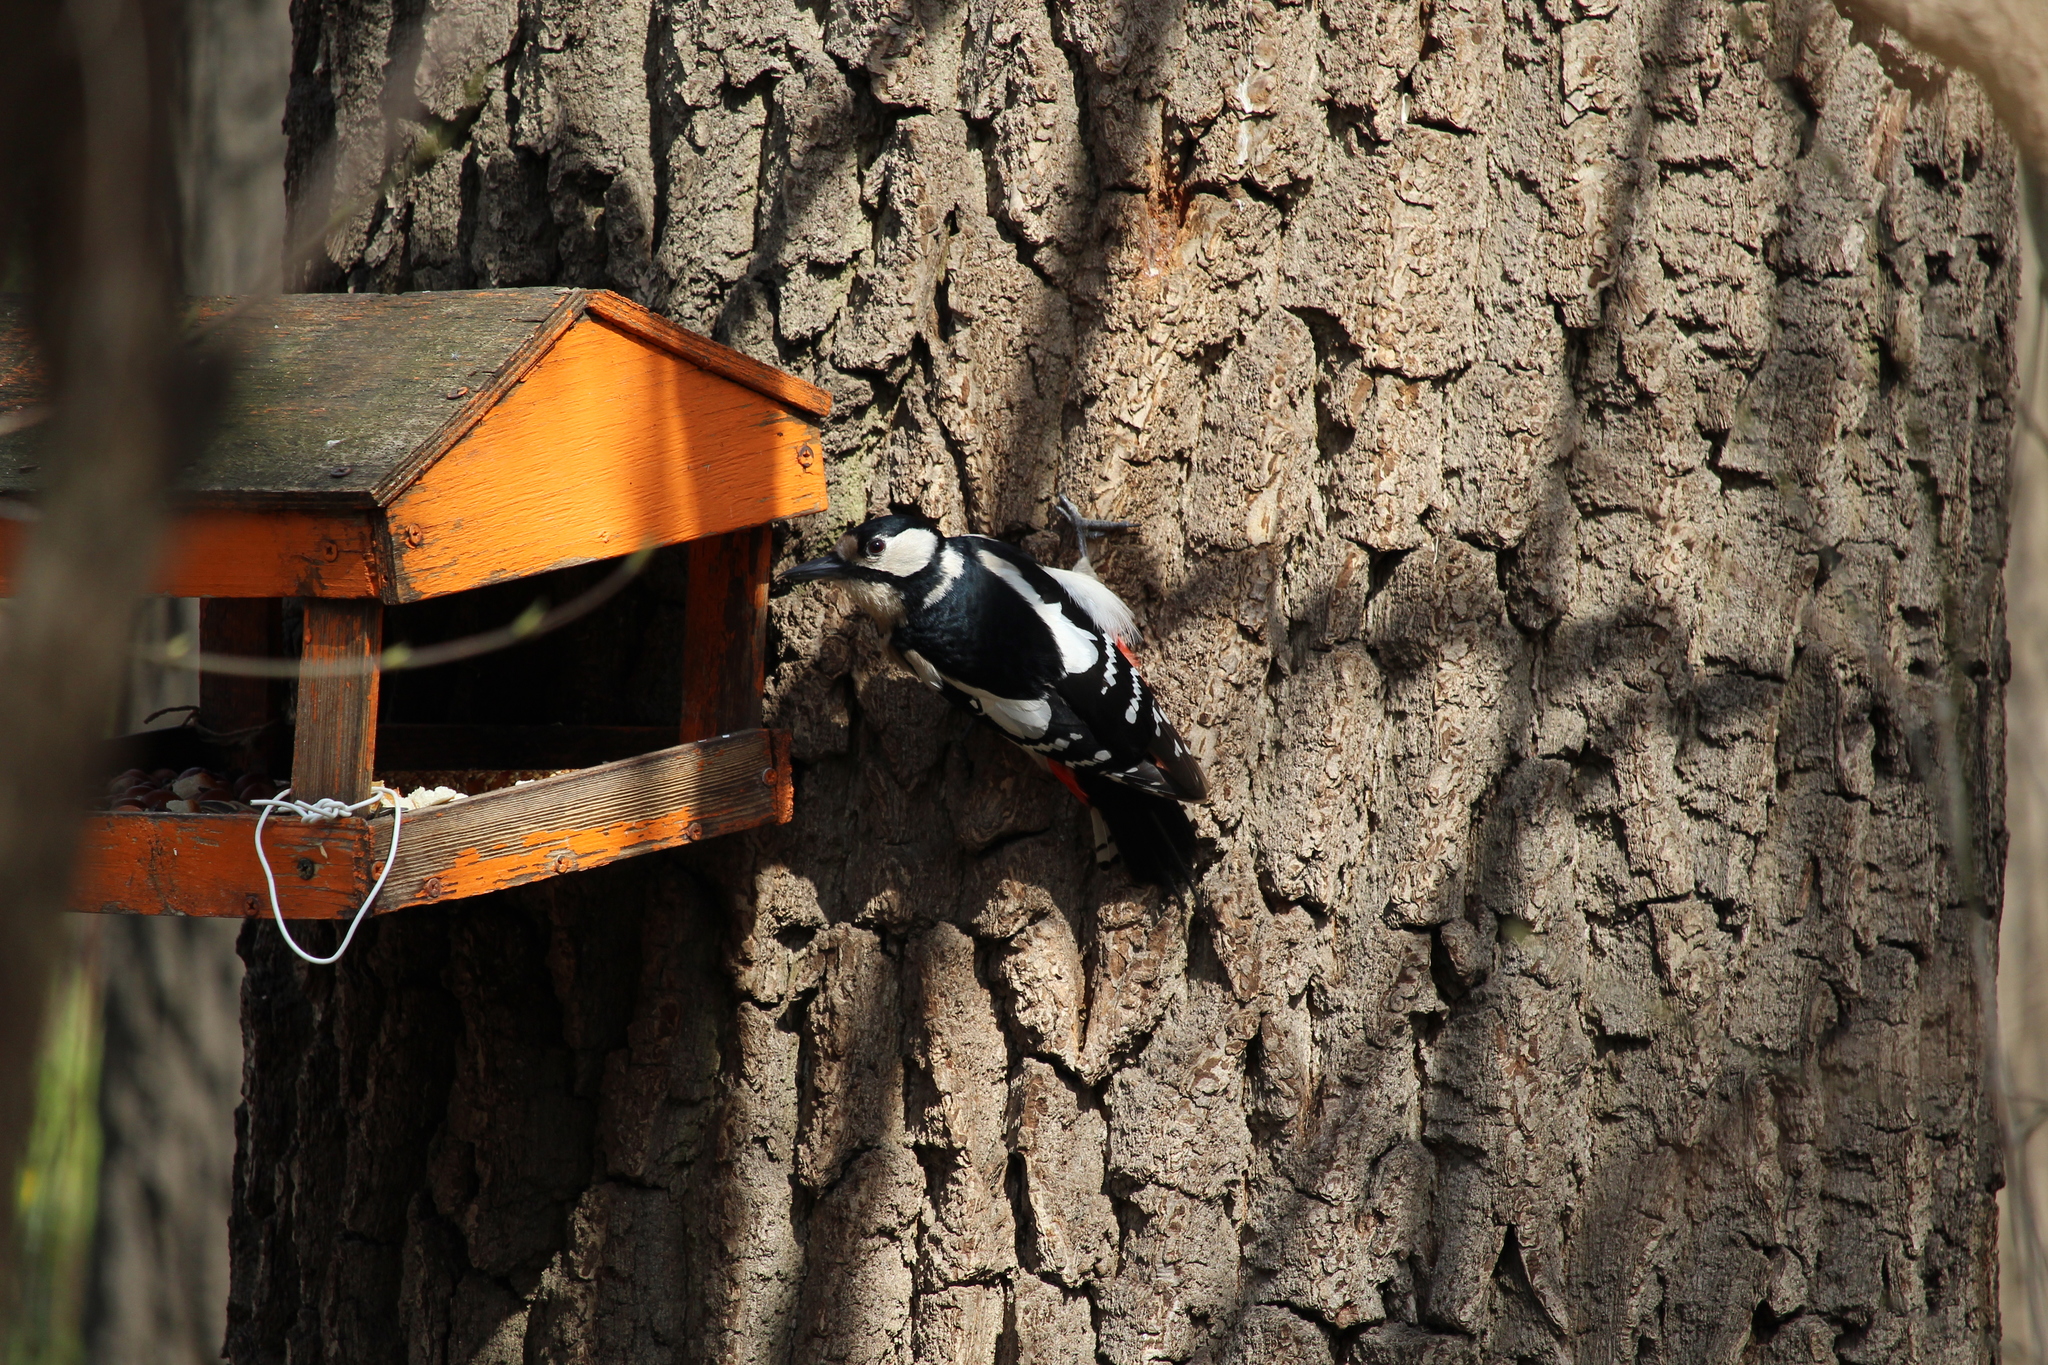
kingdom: Animalia
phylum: Chordata
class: Aves
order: Piciformes
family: Picidae
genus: Dendrocopos
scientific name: Dendrocopos major
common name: Great spotted woodpecker
